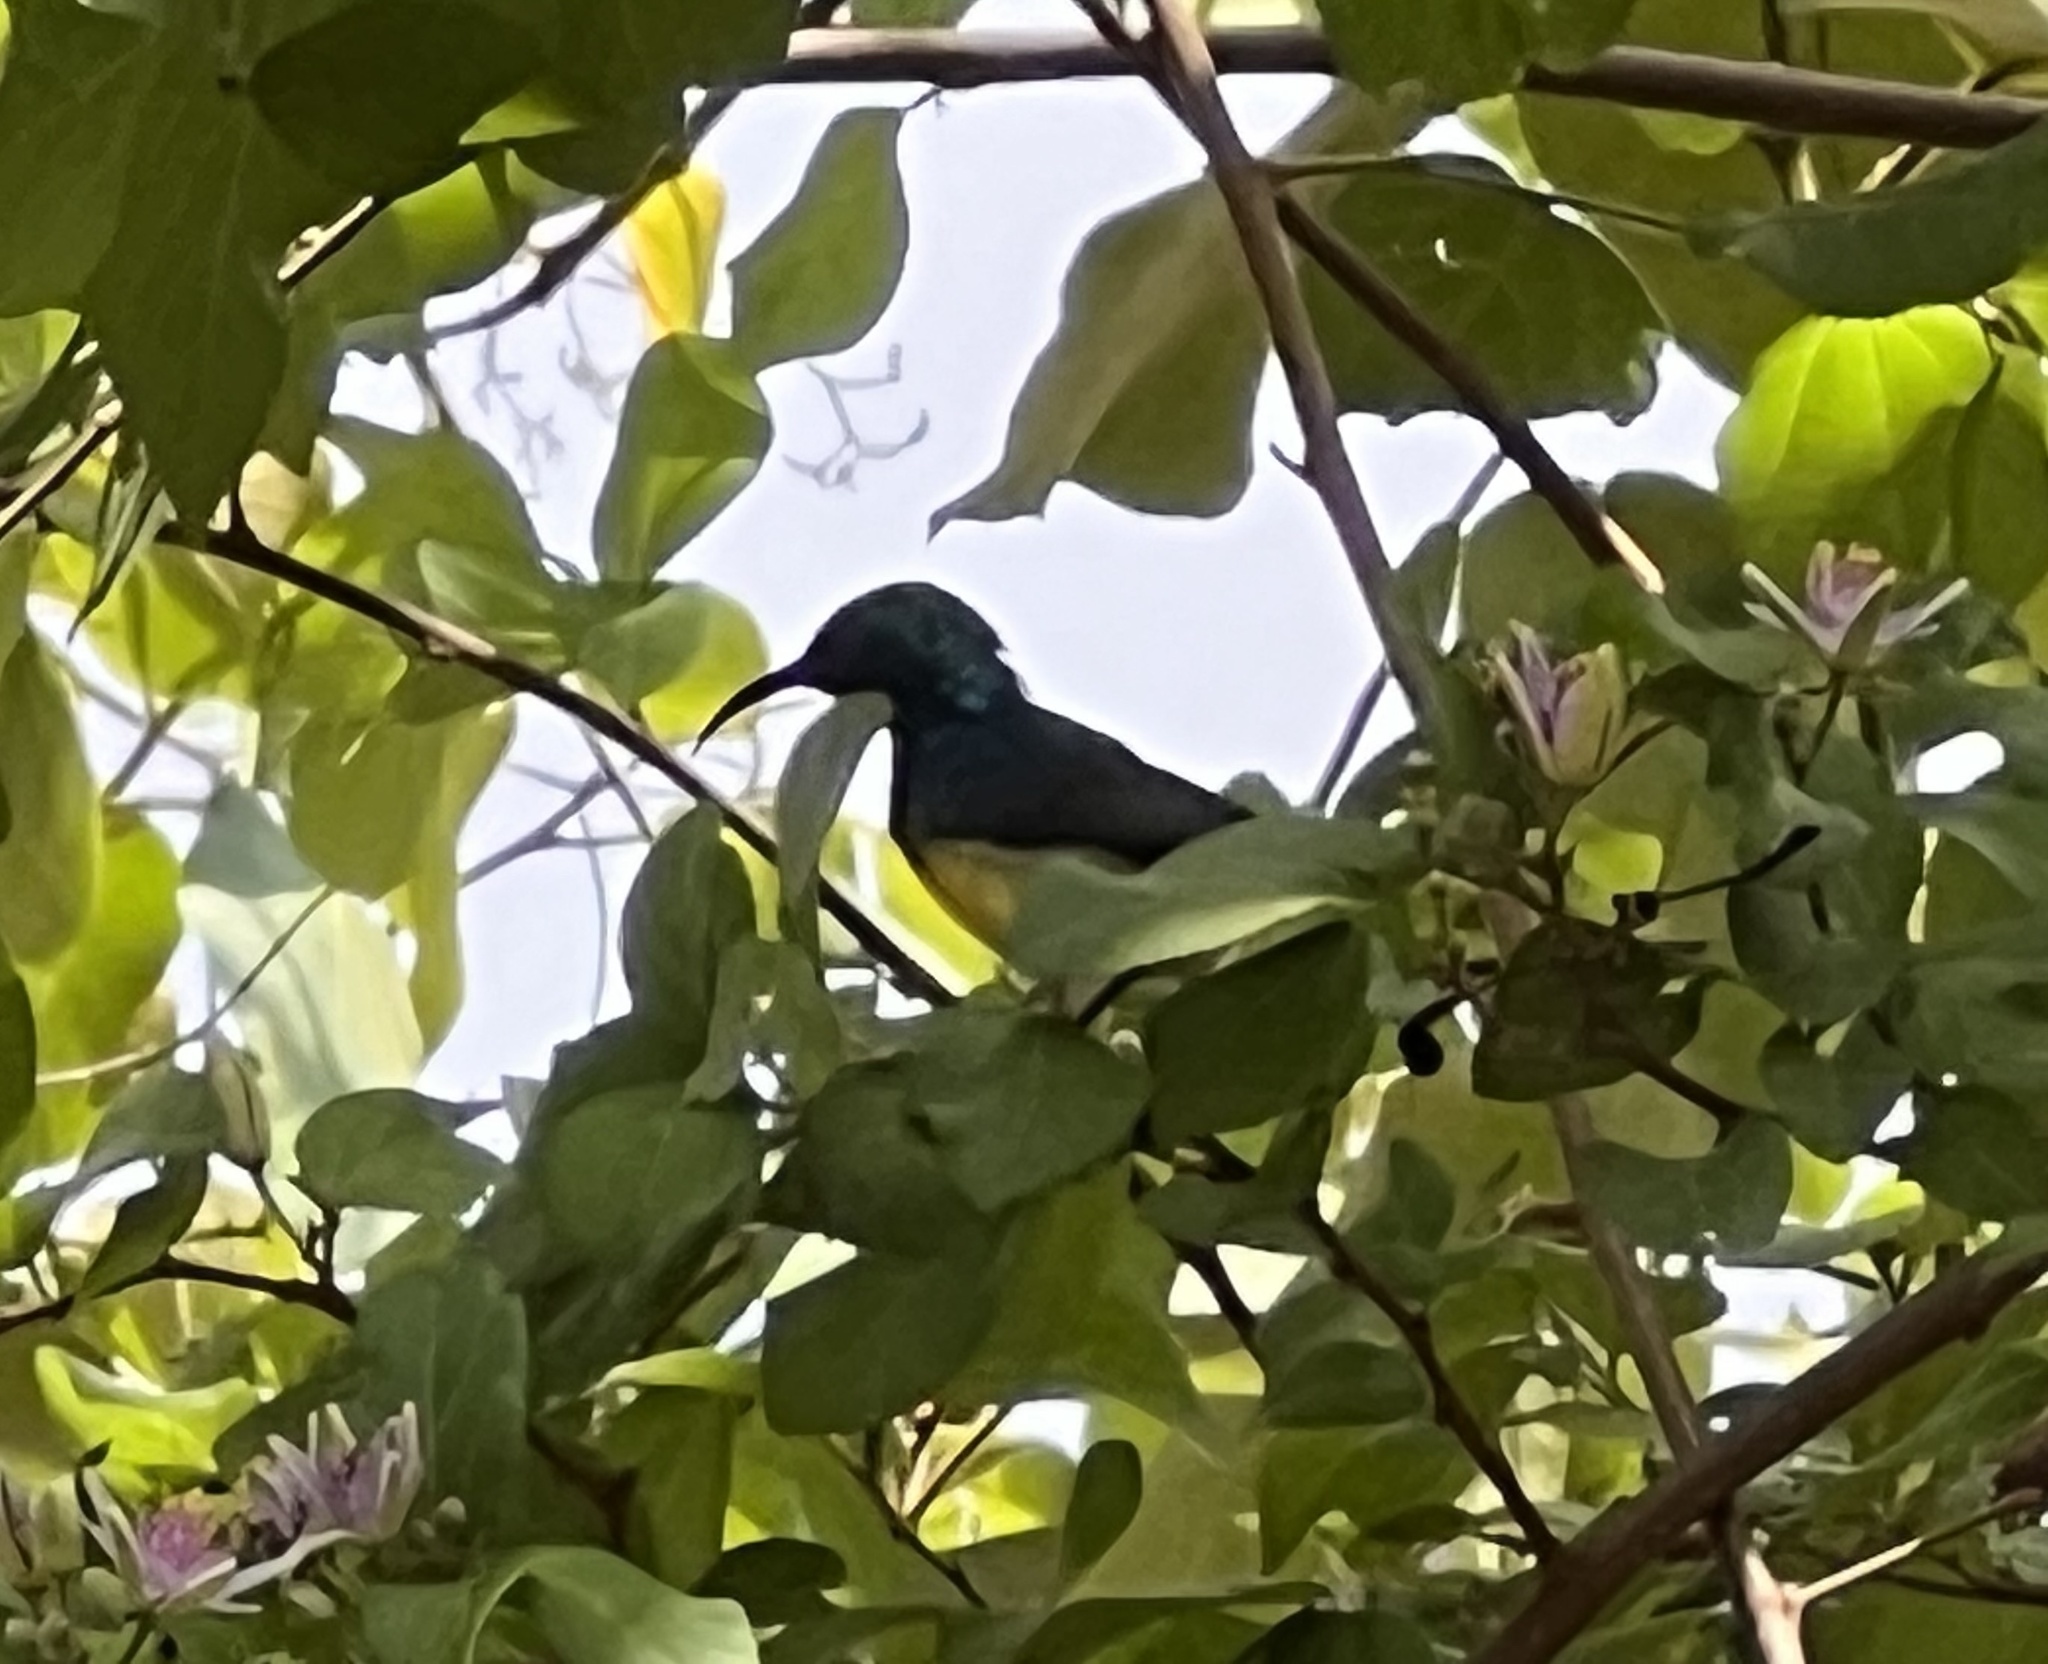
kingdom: Animalia
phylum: Chordata
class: Aves
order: Passeriformes
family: Nectariniidae
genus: Cinnyris
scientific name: Cinnyris venustus
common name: Variable sunbird
